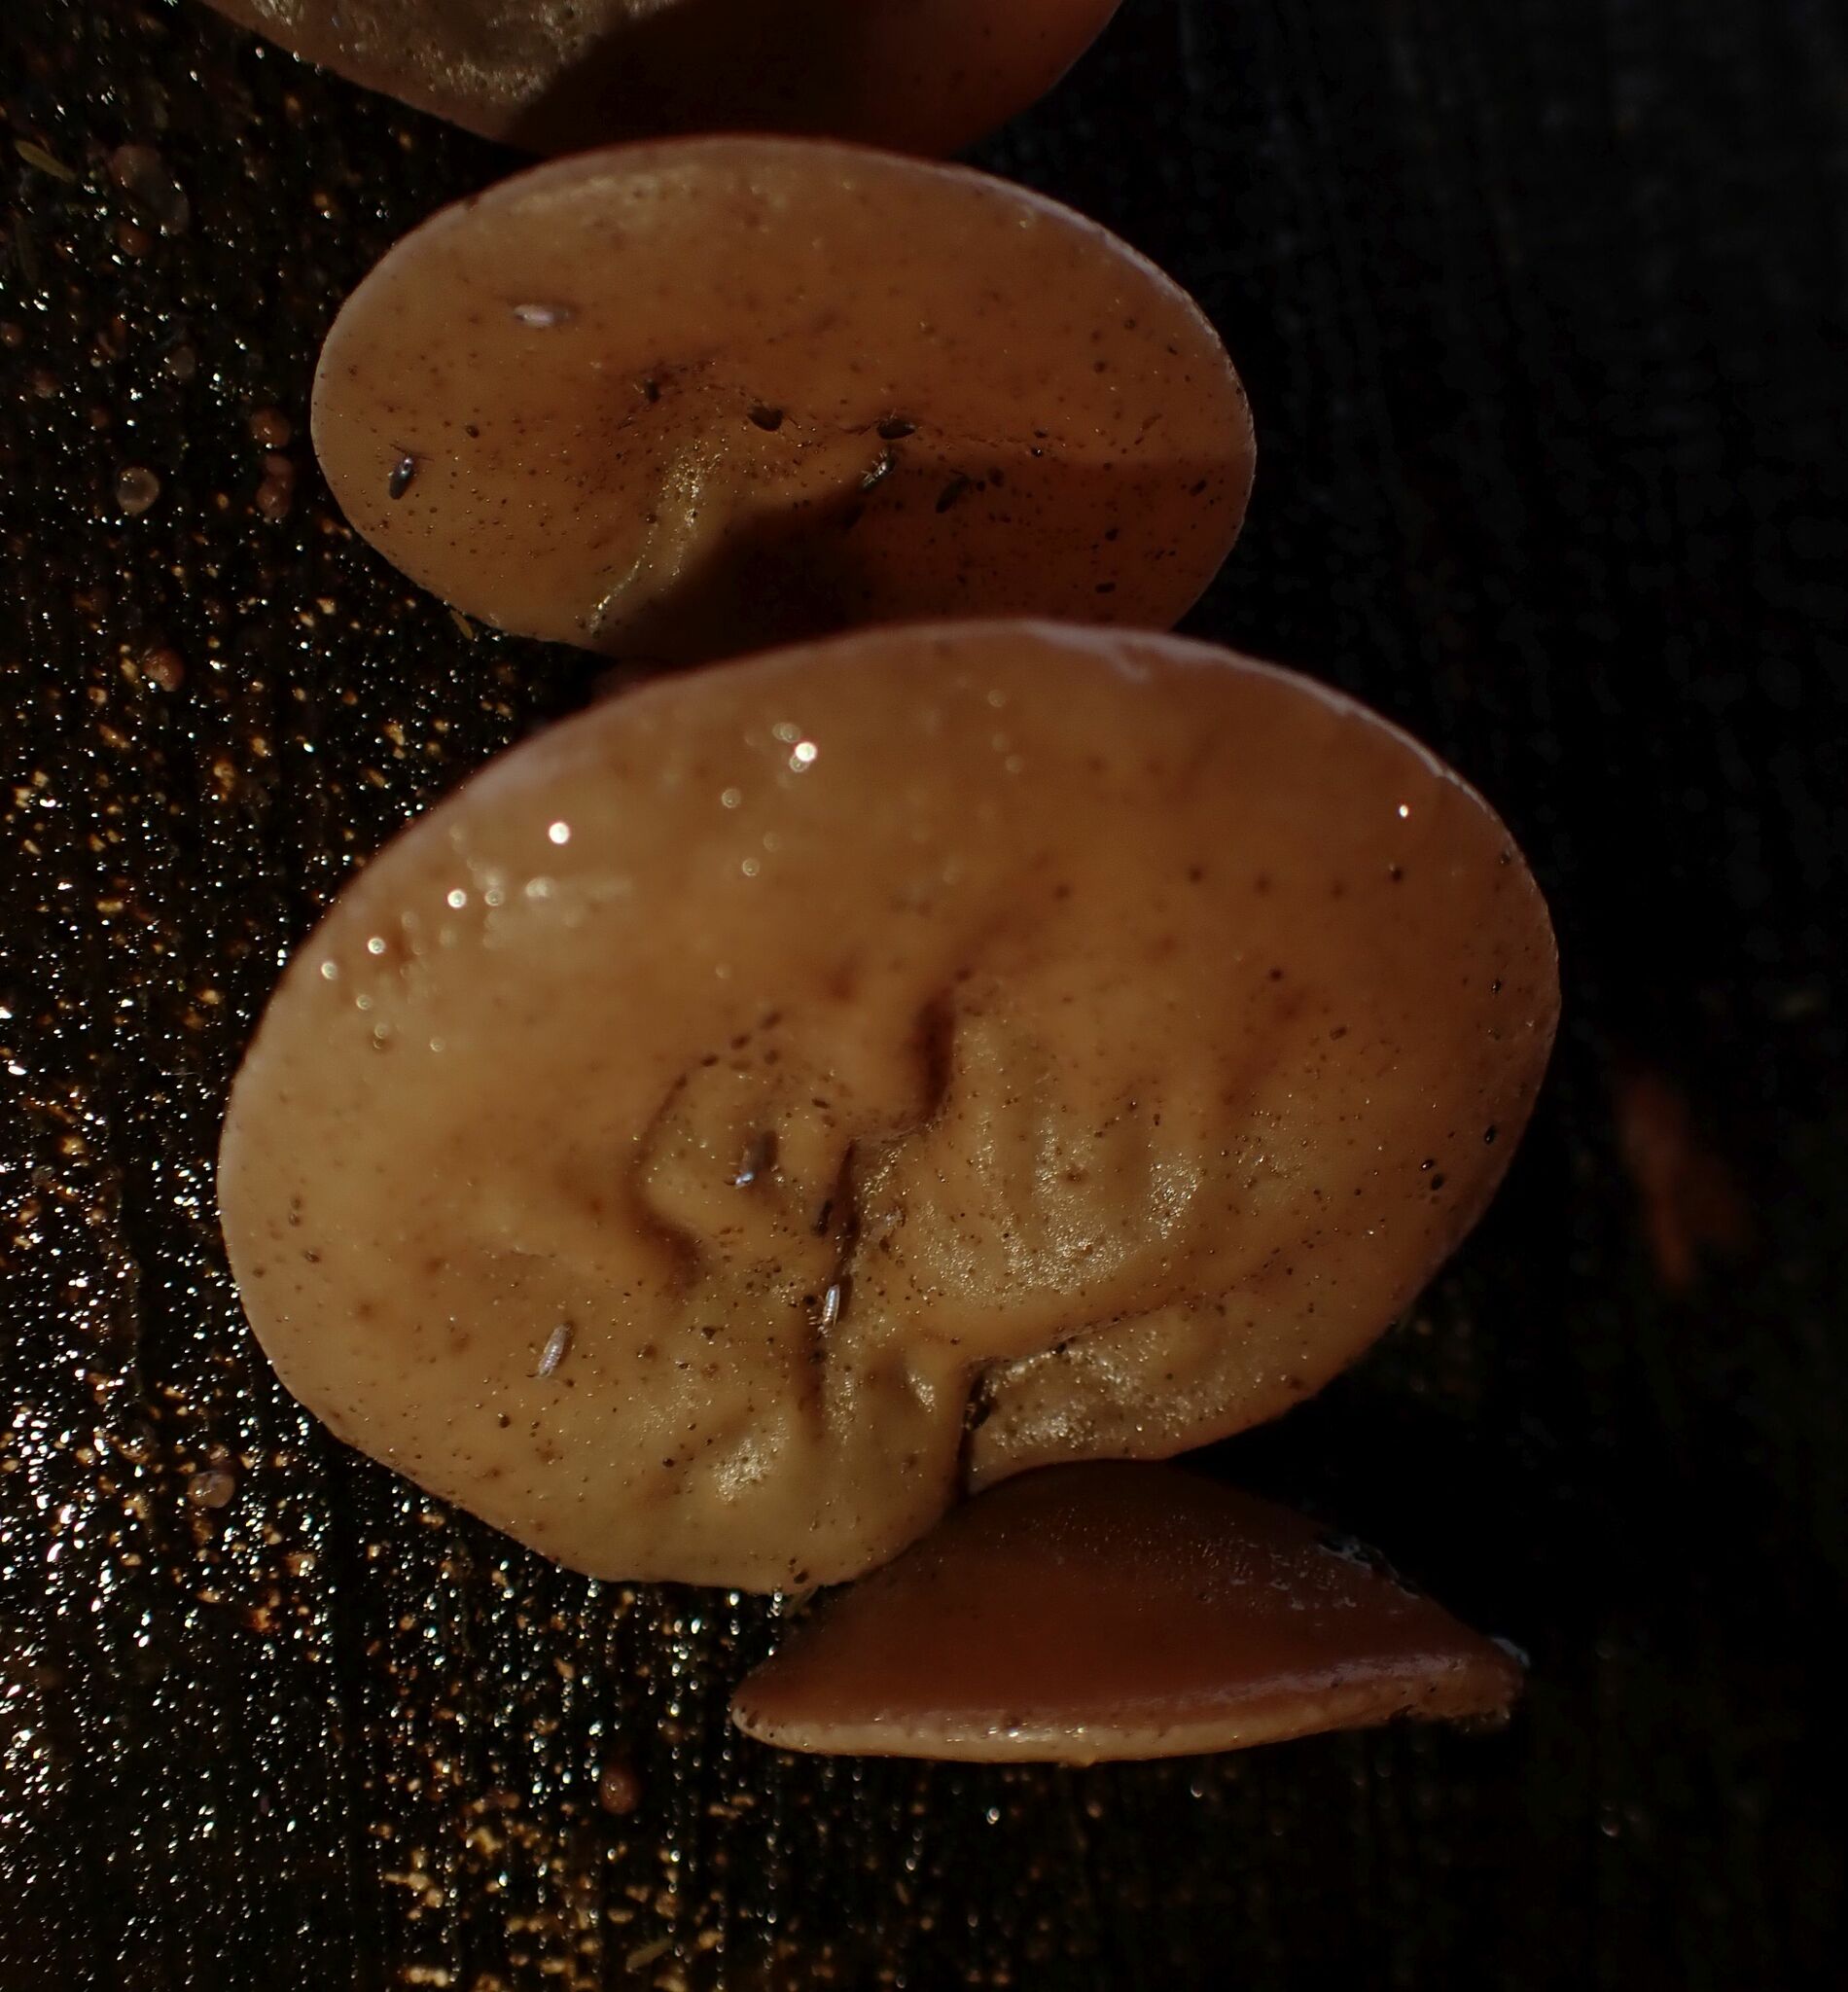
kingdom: Fungi
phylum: Basidiomycota
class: Agaricomycetes
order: Auriculariales
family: Auriculariaceae
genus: Auricularia
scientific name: Auricularia auricula-judae
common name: Jelly ear
